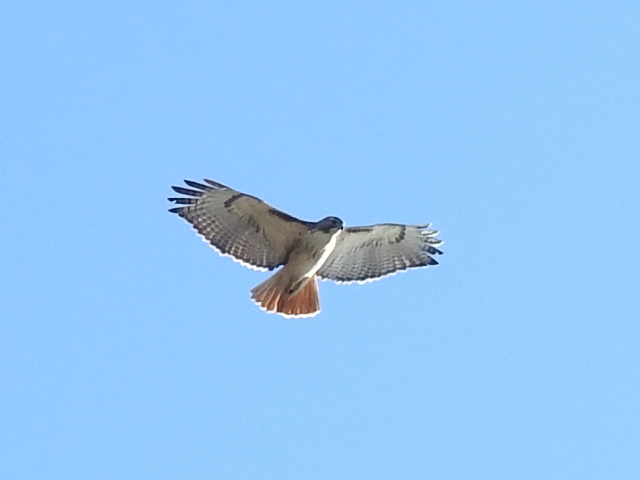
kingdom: Animalia
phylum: Chordata
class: Aves
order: Accipitriformes
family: Accipitridae
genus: Buteo
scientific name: Buteo jamaicensis
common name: Red-tailed hawk
